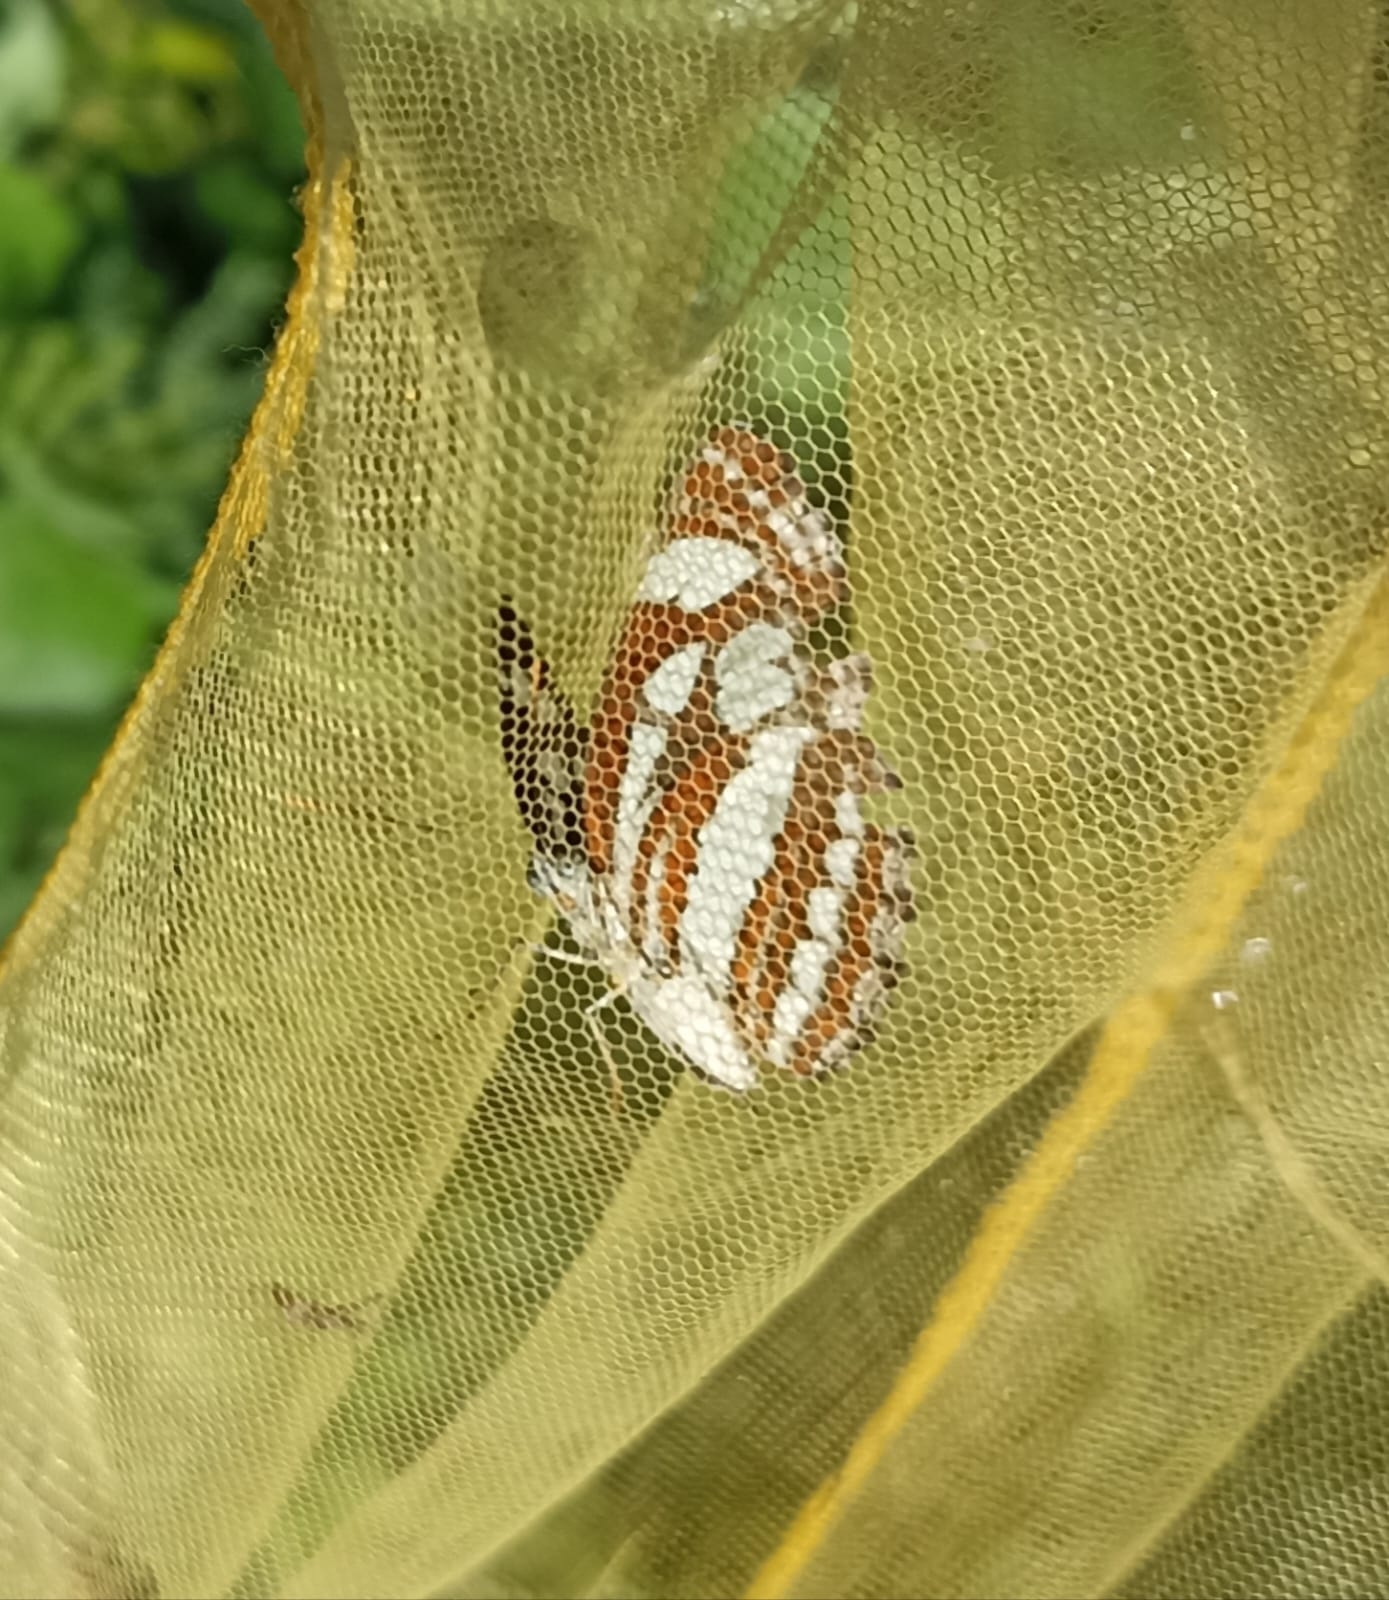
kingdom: Animalia
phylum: Arthropoda
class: Insecta
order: Lepidoptera
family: Nymphalidae
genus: Neptis
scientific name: Neptis hylas
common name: Common sailer
